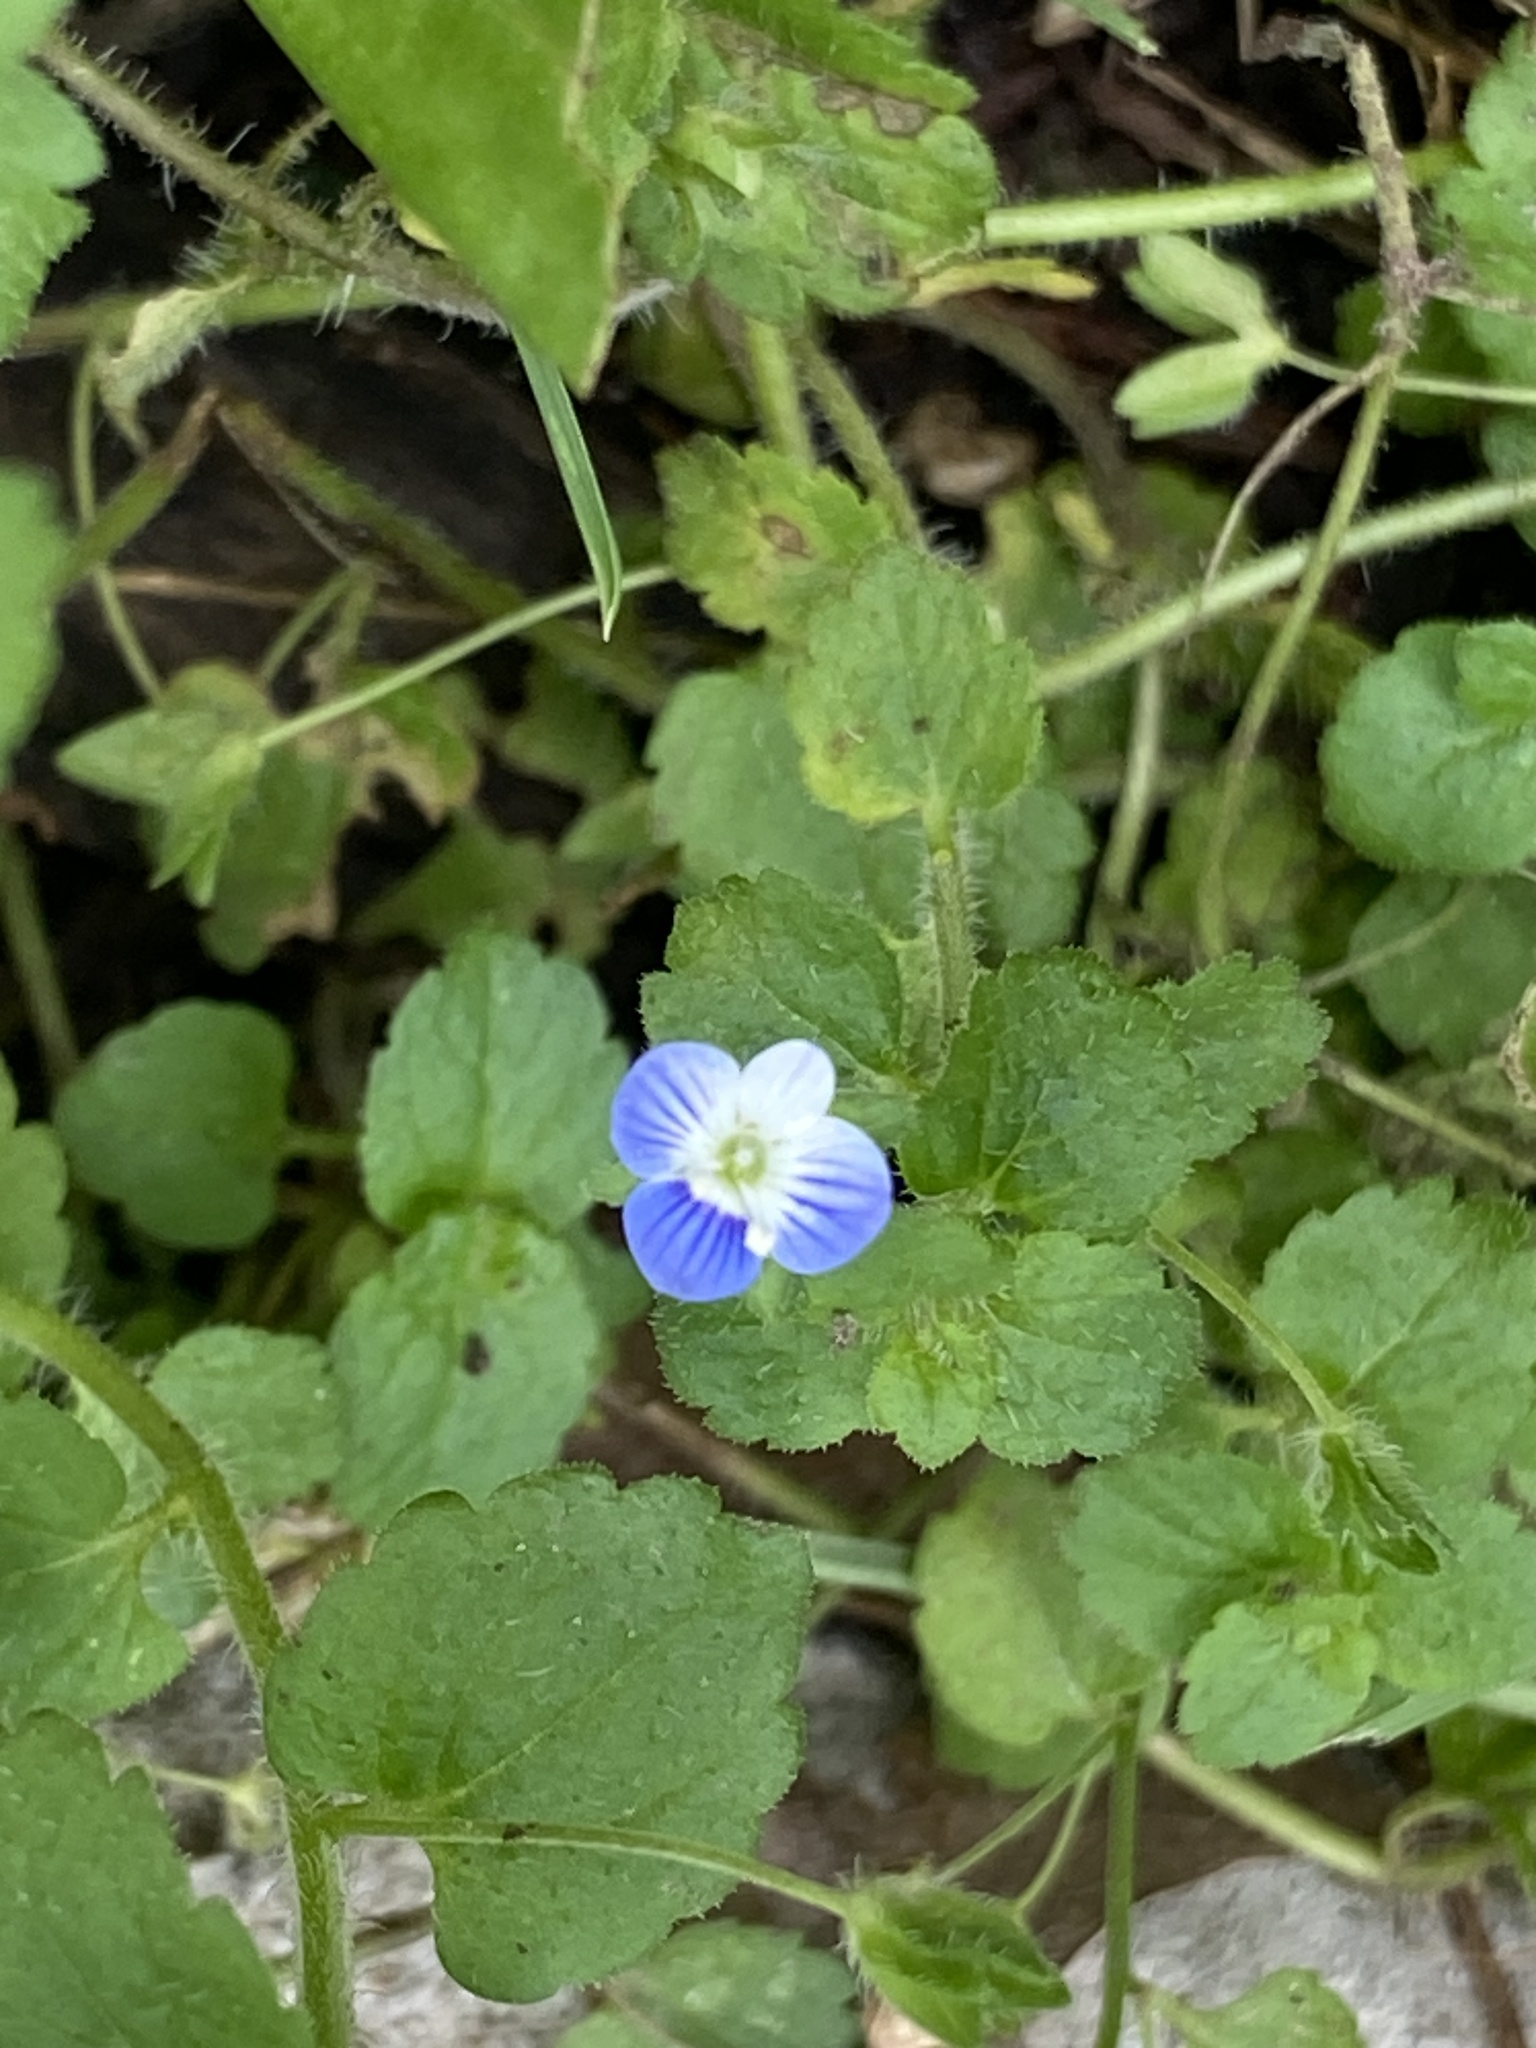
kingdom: Plantae
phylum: Tracheophyta
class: Magnoliopsida
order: Lamiales
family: Plantaginaceae
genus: Veronica
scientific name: Veronica persica
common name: Common field-speedwell
